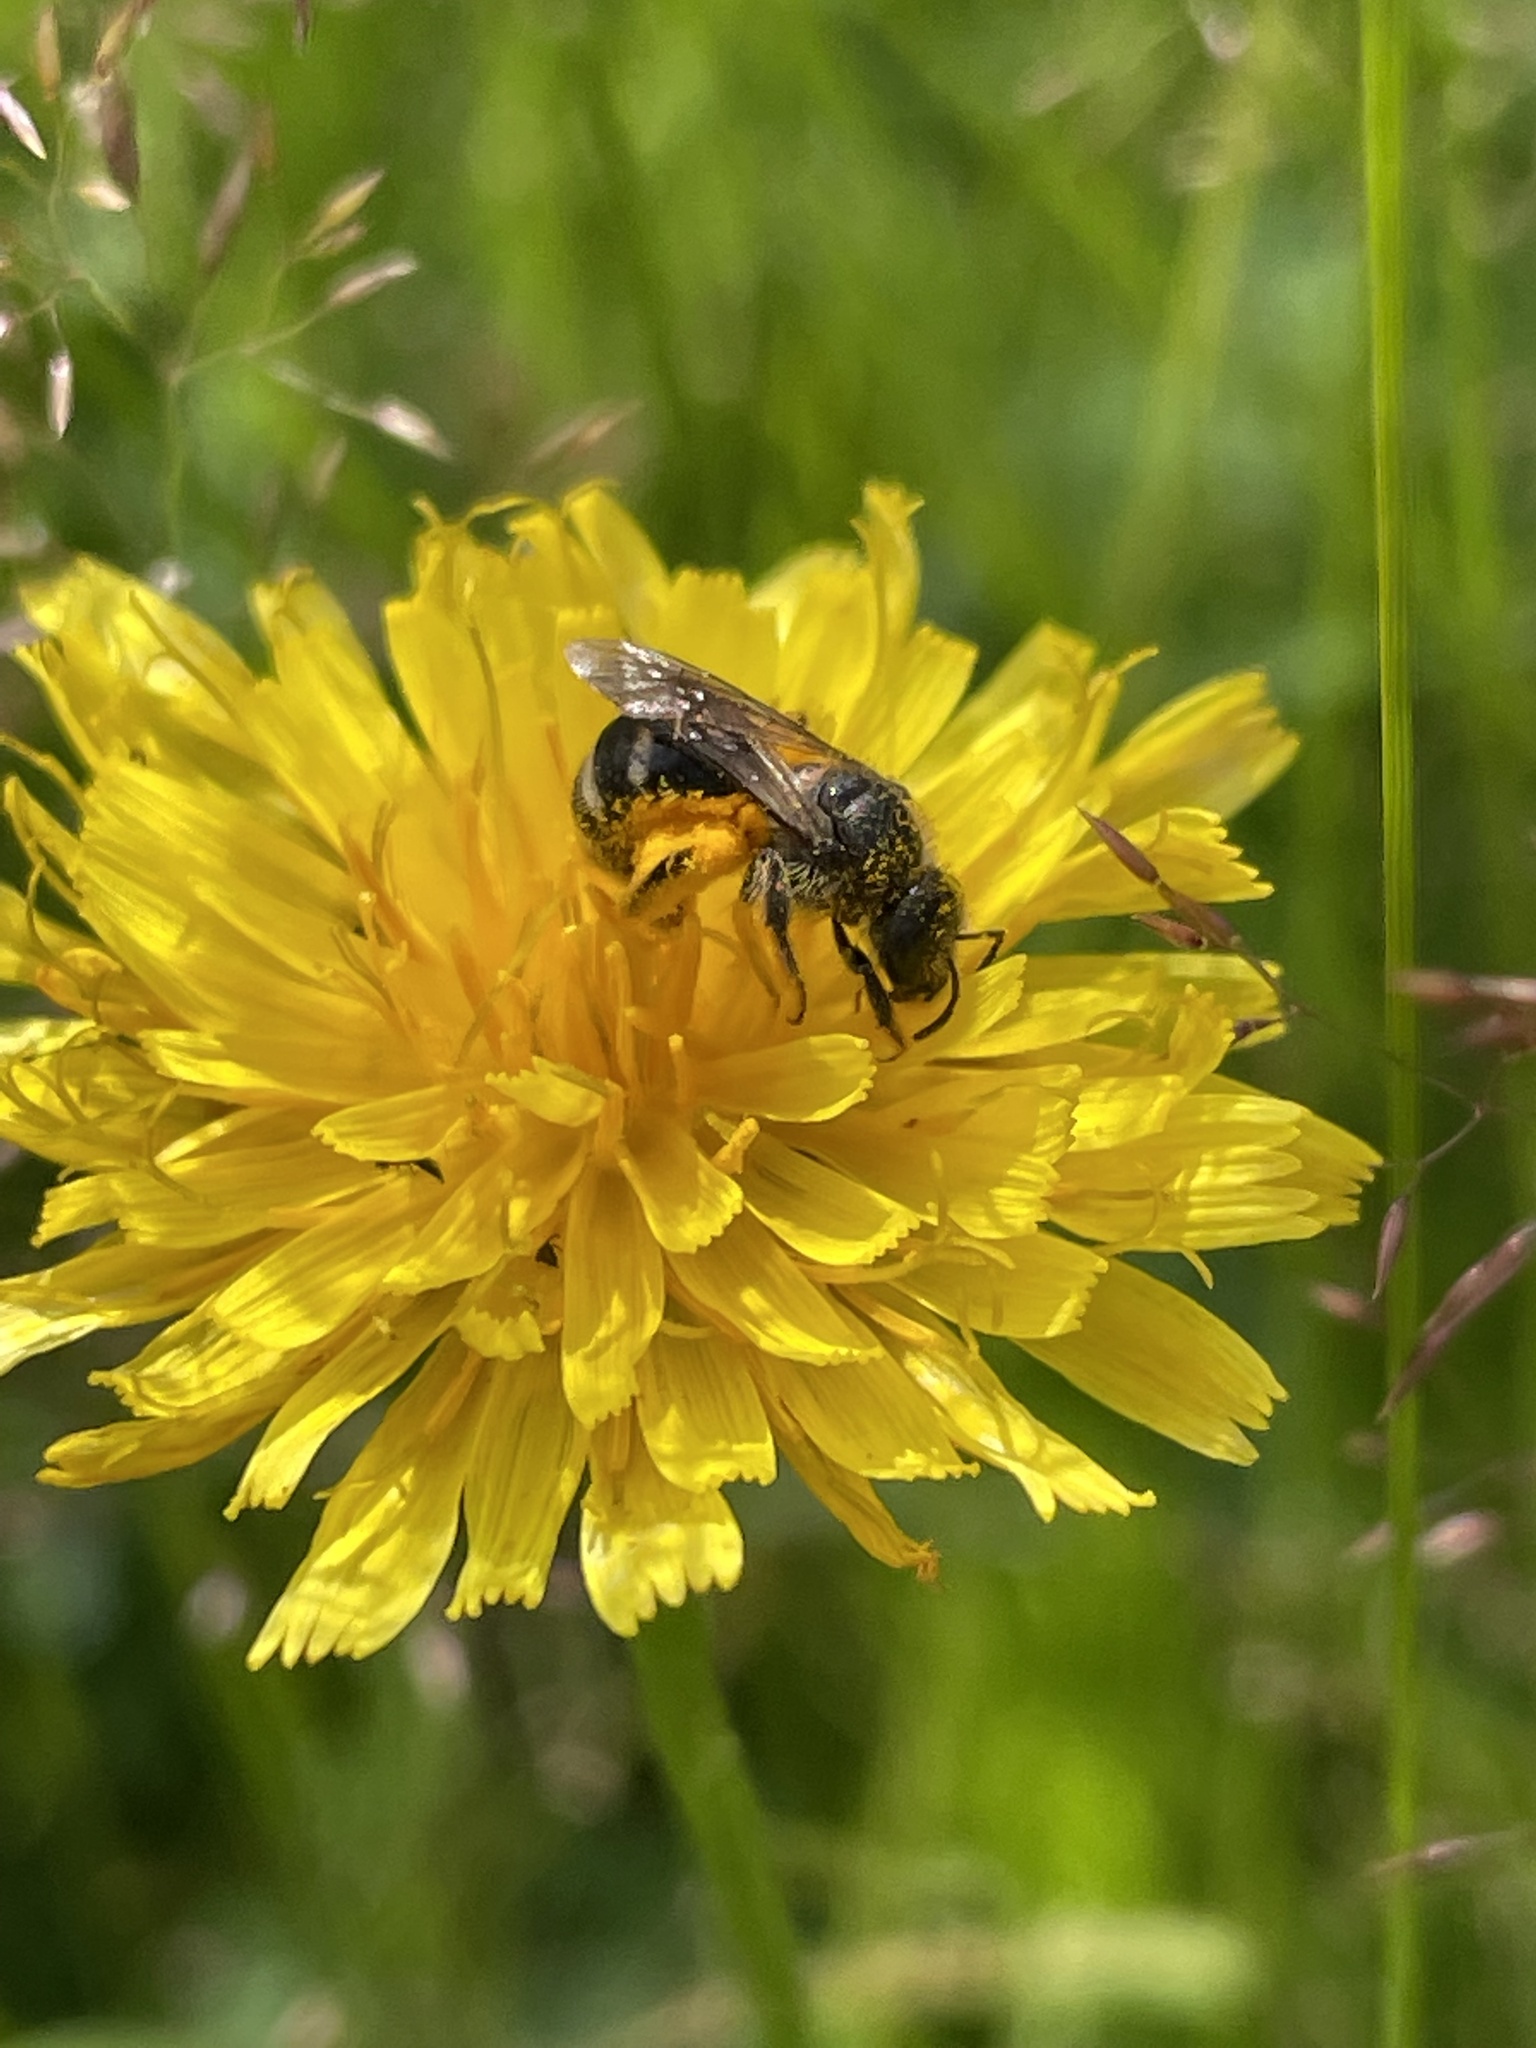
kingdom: Animalia
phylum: Arthropoda
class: Insecta
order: Hymenoptera
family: Halictidae
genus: Lasioglossum
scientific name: Lasioglossum leucozonium
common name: White-zoned furrow bee
